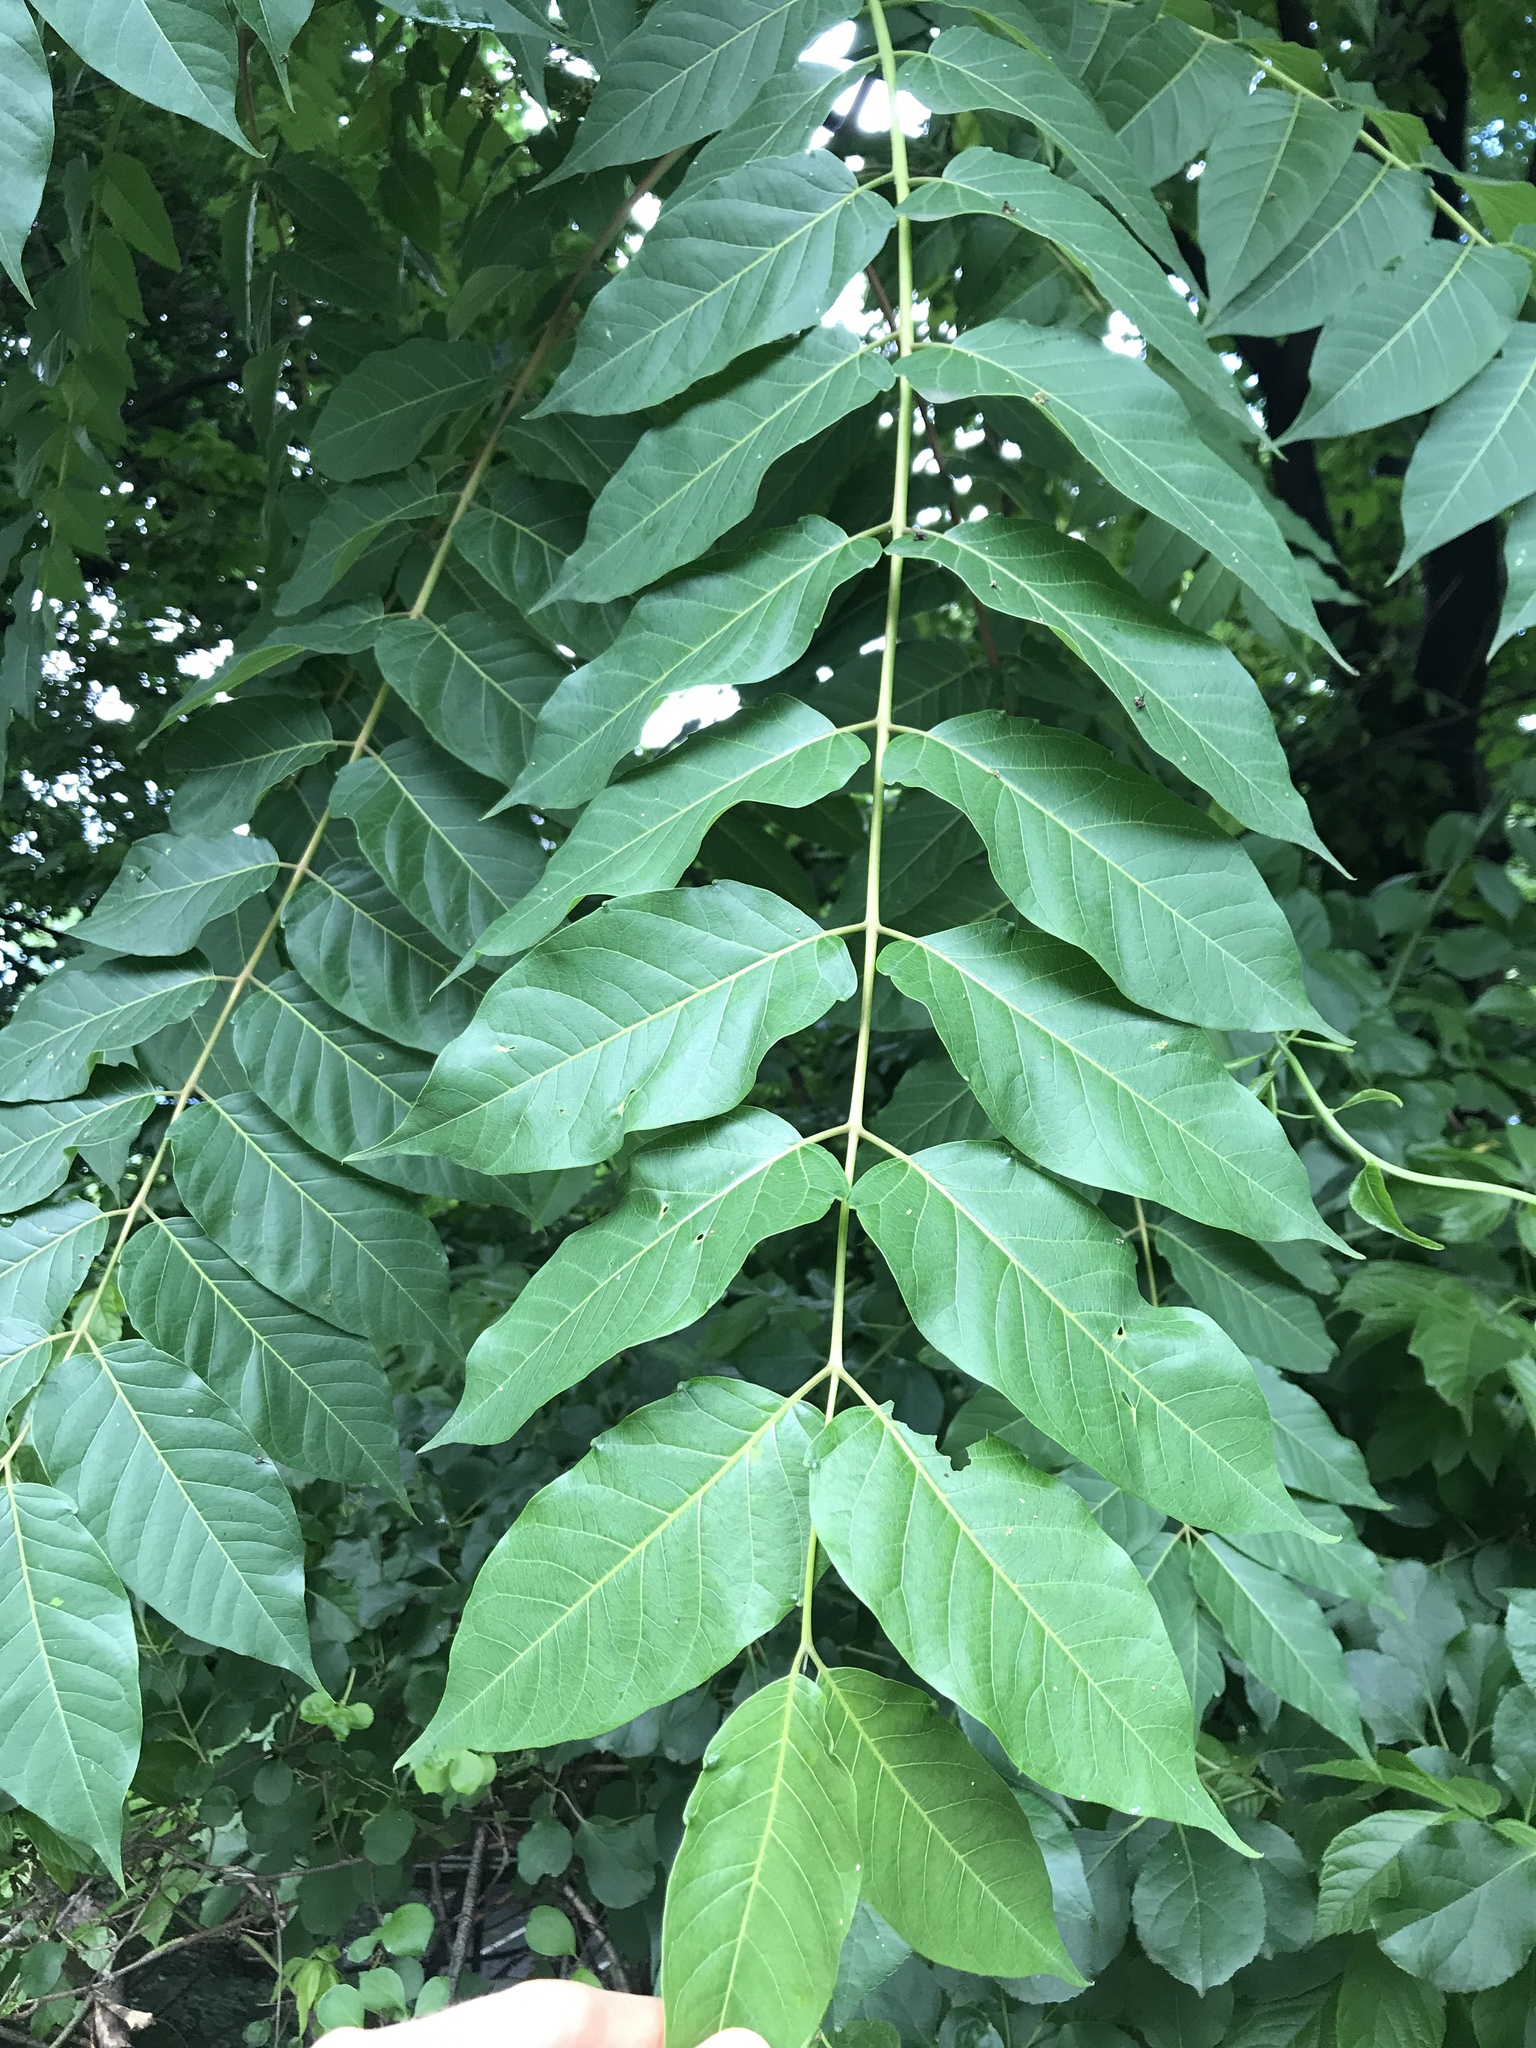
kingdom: Plantae
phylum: Tracheophyta
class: Magnoliopsida
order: Sapindales
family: Simaroubaceae
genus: Ailanthus
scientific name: Ailanthus altissima
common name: Tree-of-heaven
